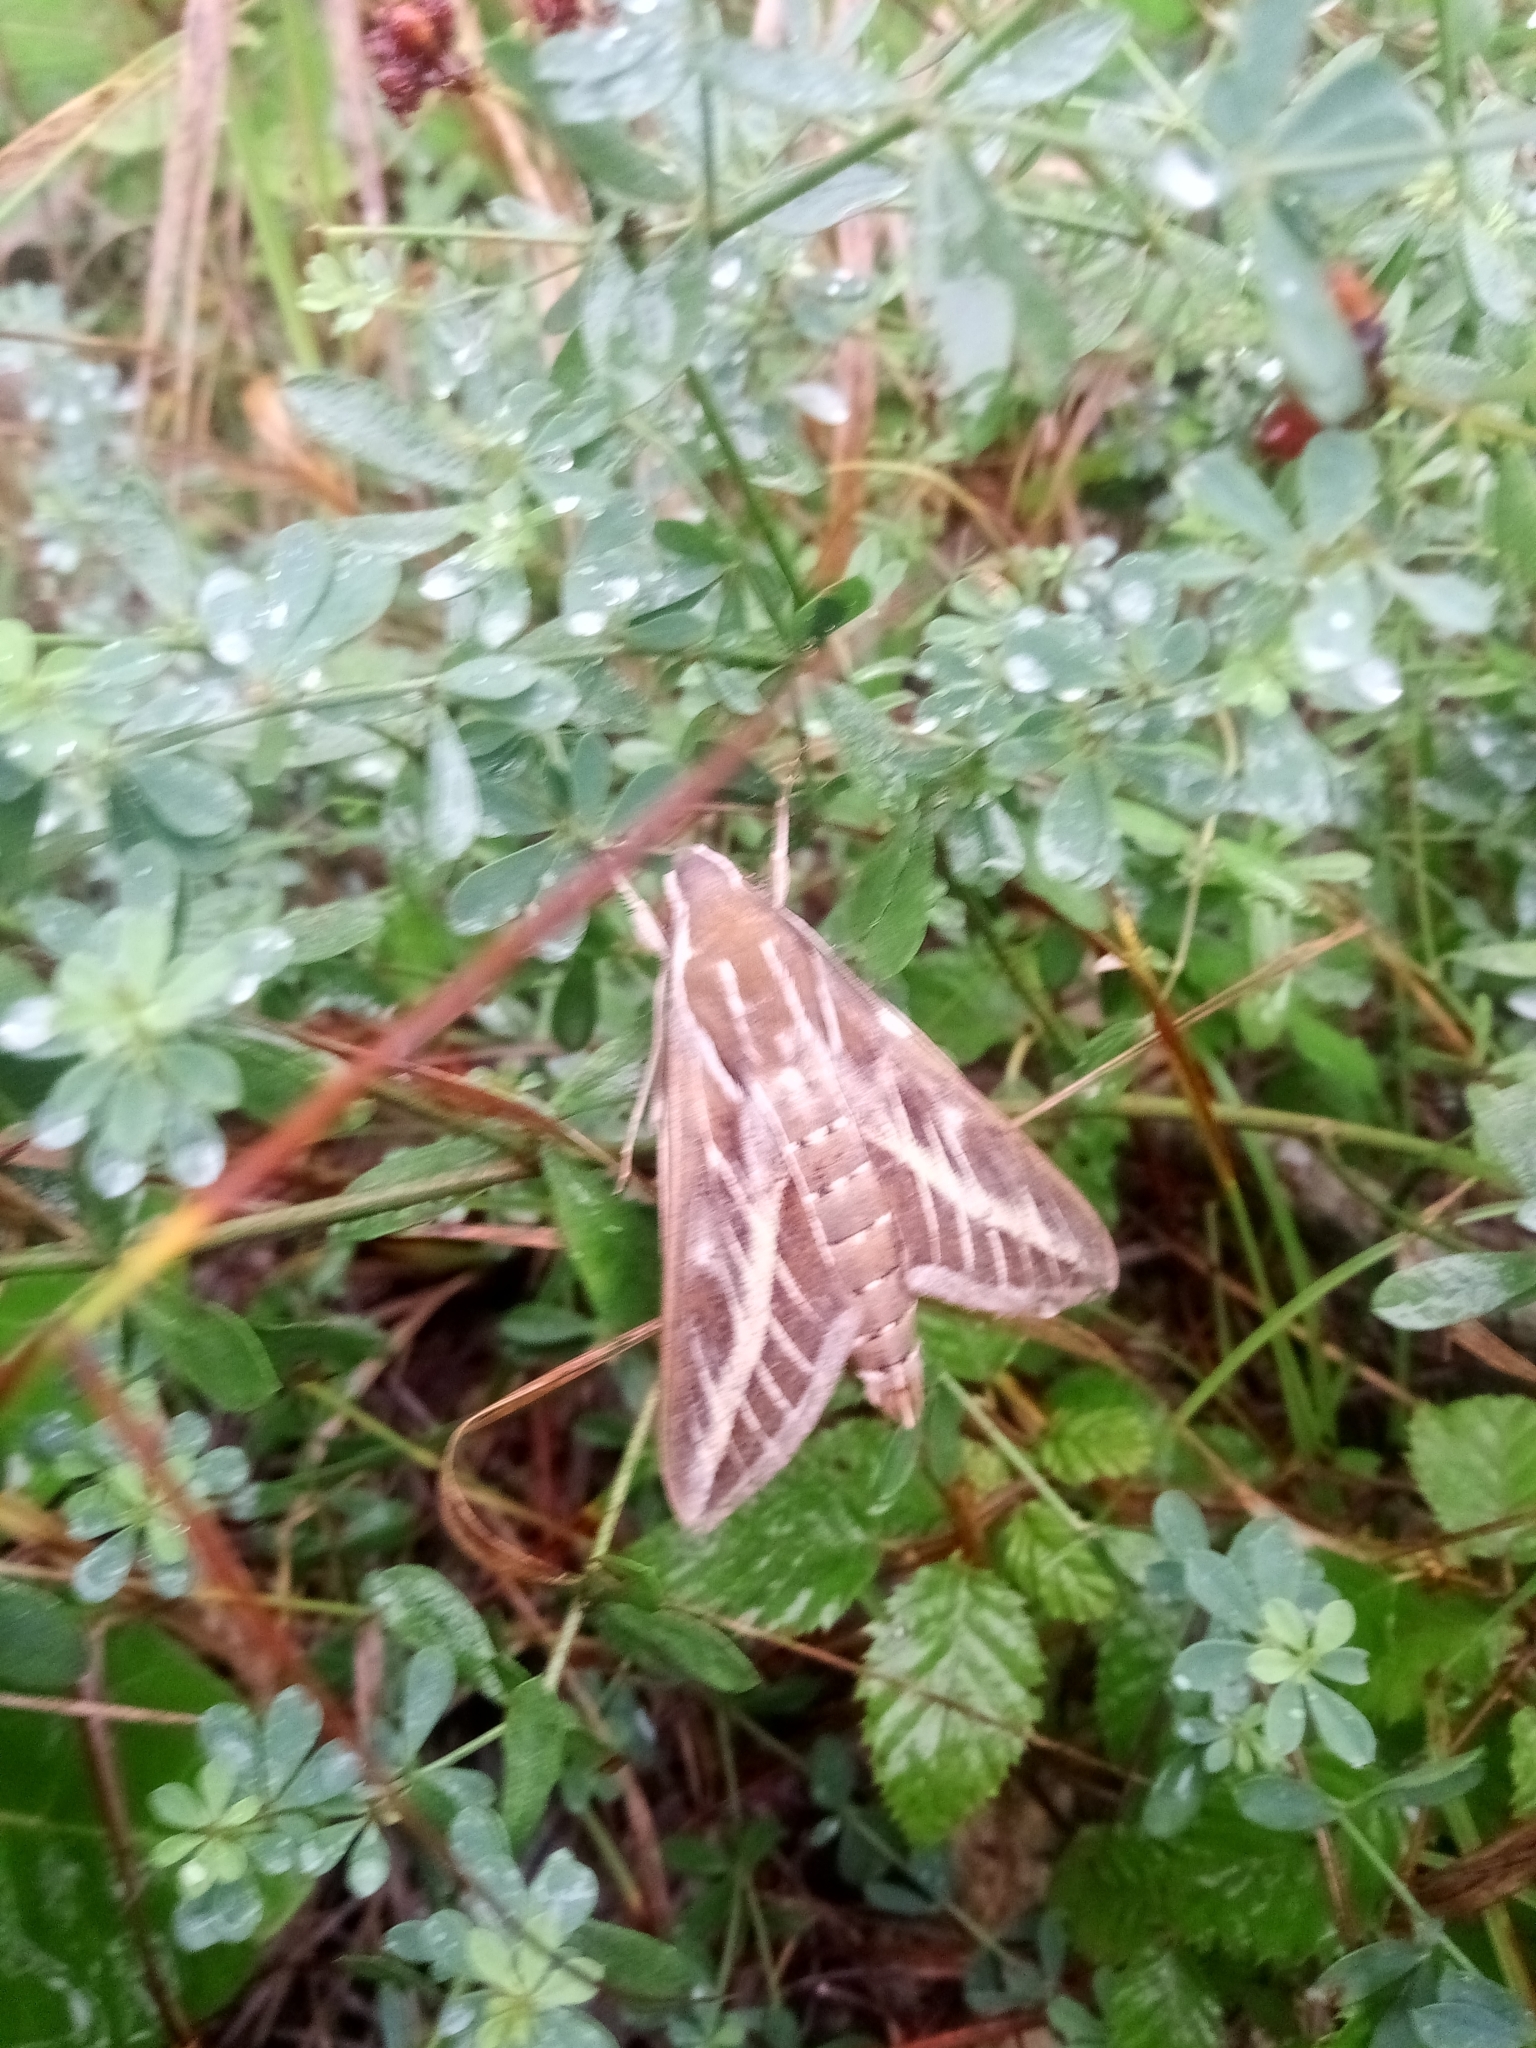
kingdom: Animalia
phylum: Arthropoda
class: Insecta
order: Lepidoptera
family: Sphingidae
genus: Hyles
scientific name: Hyles livornica
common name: Striped hawk-moth
